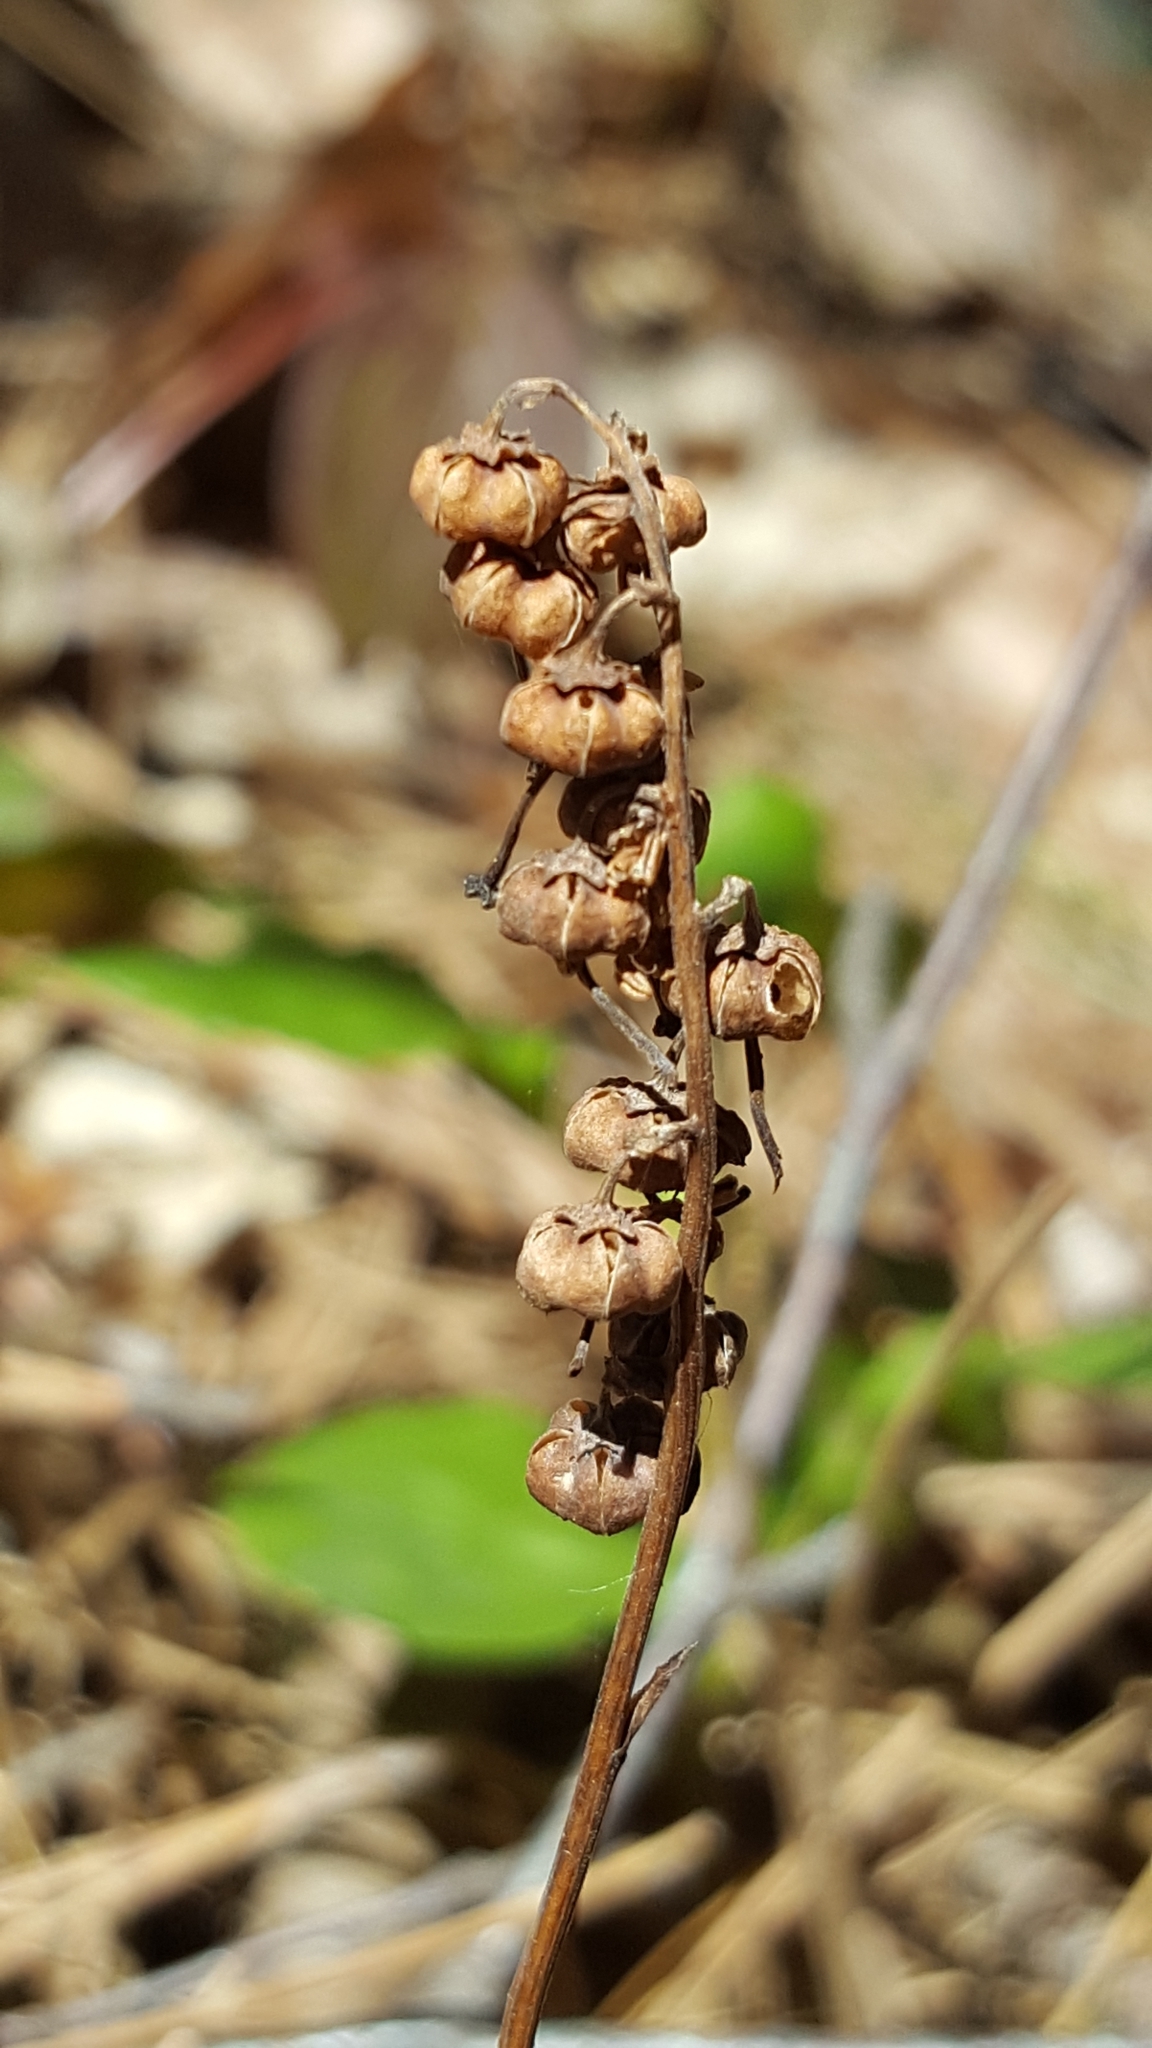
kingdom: Plantae
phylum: Tracheophyta
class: Magnoliopsida
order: Ericales
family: Ericaceae
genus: Orthilia
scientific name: Orthilia secunda
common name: One-sided orthilia
